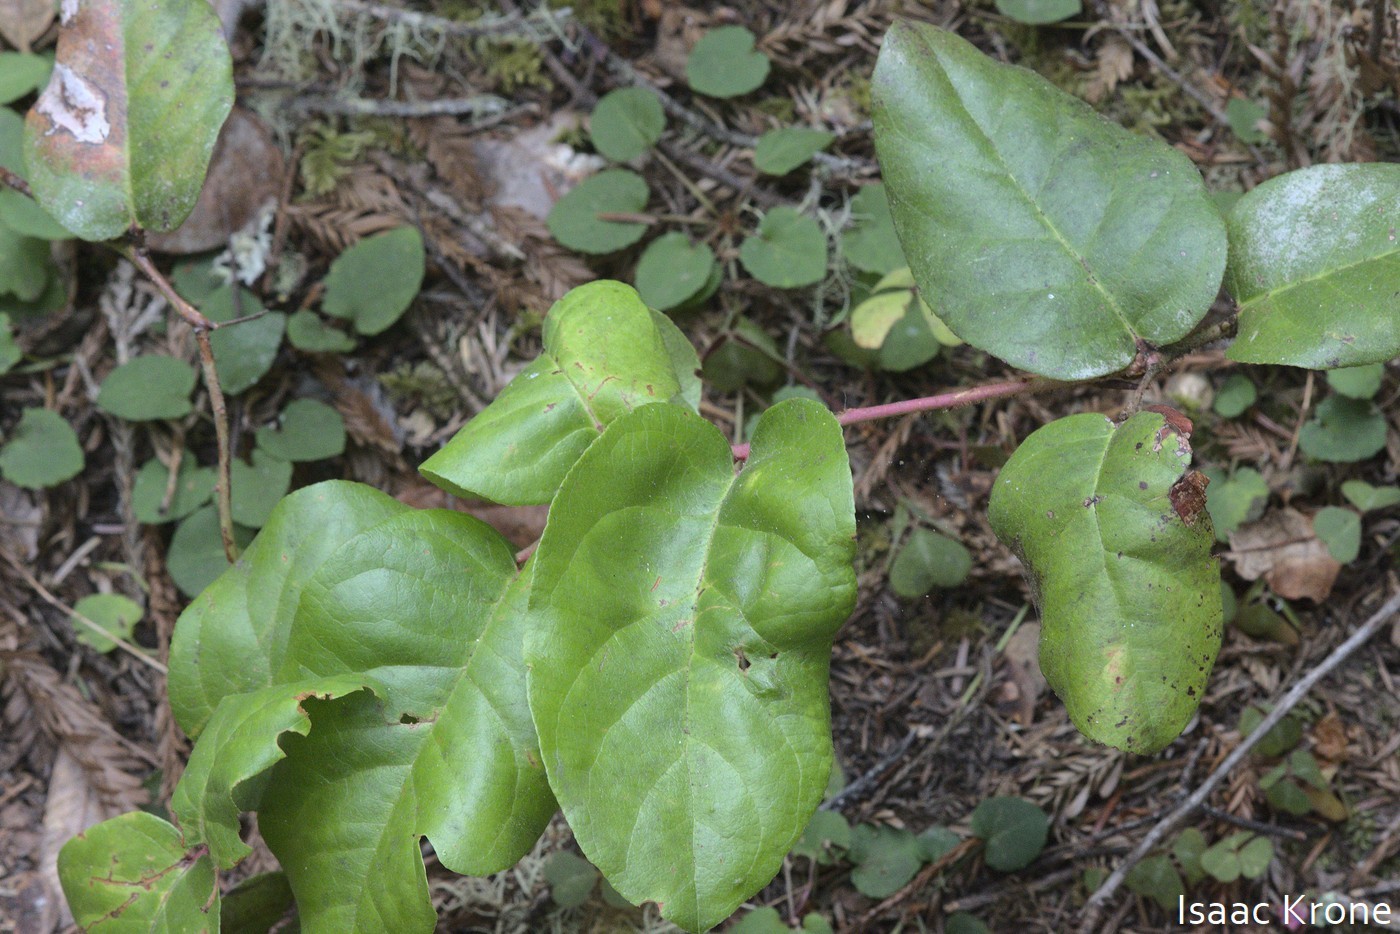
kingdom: Plantae
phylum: Tracheophyta
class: Magnoliopsida
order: Ericales
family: Ericaceae
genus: Gaultheria
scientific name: Gaultheria shallon
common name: Shallon
